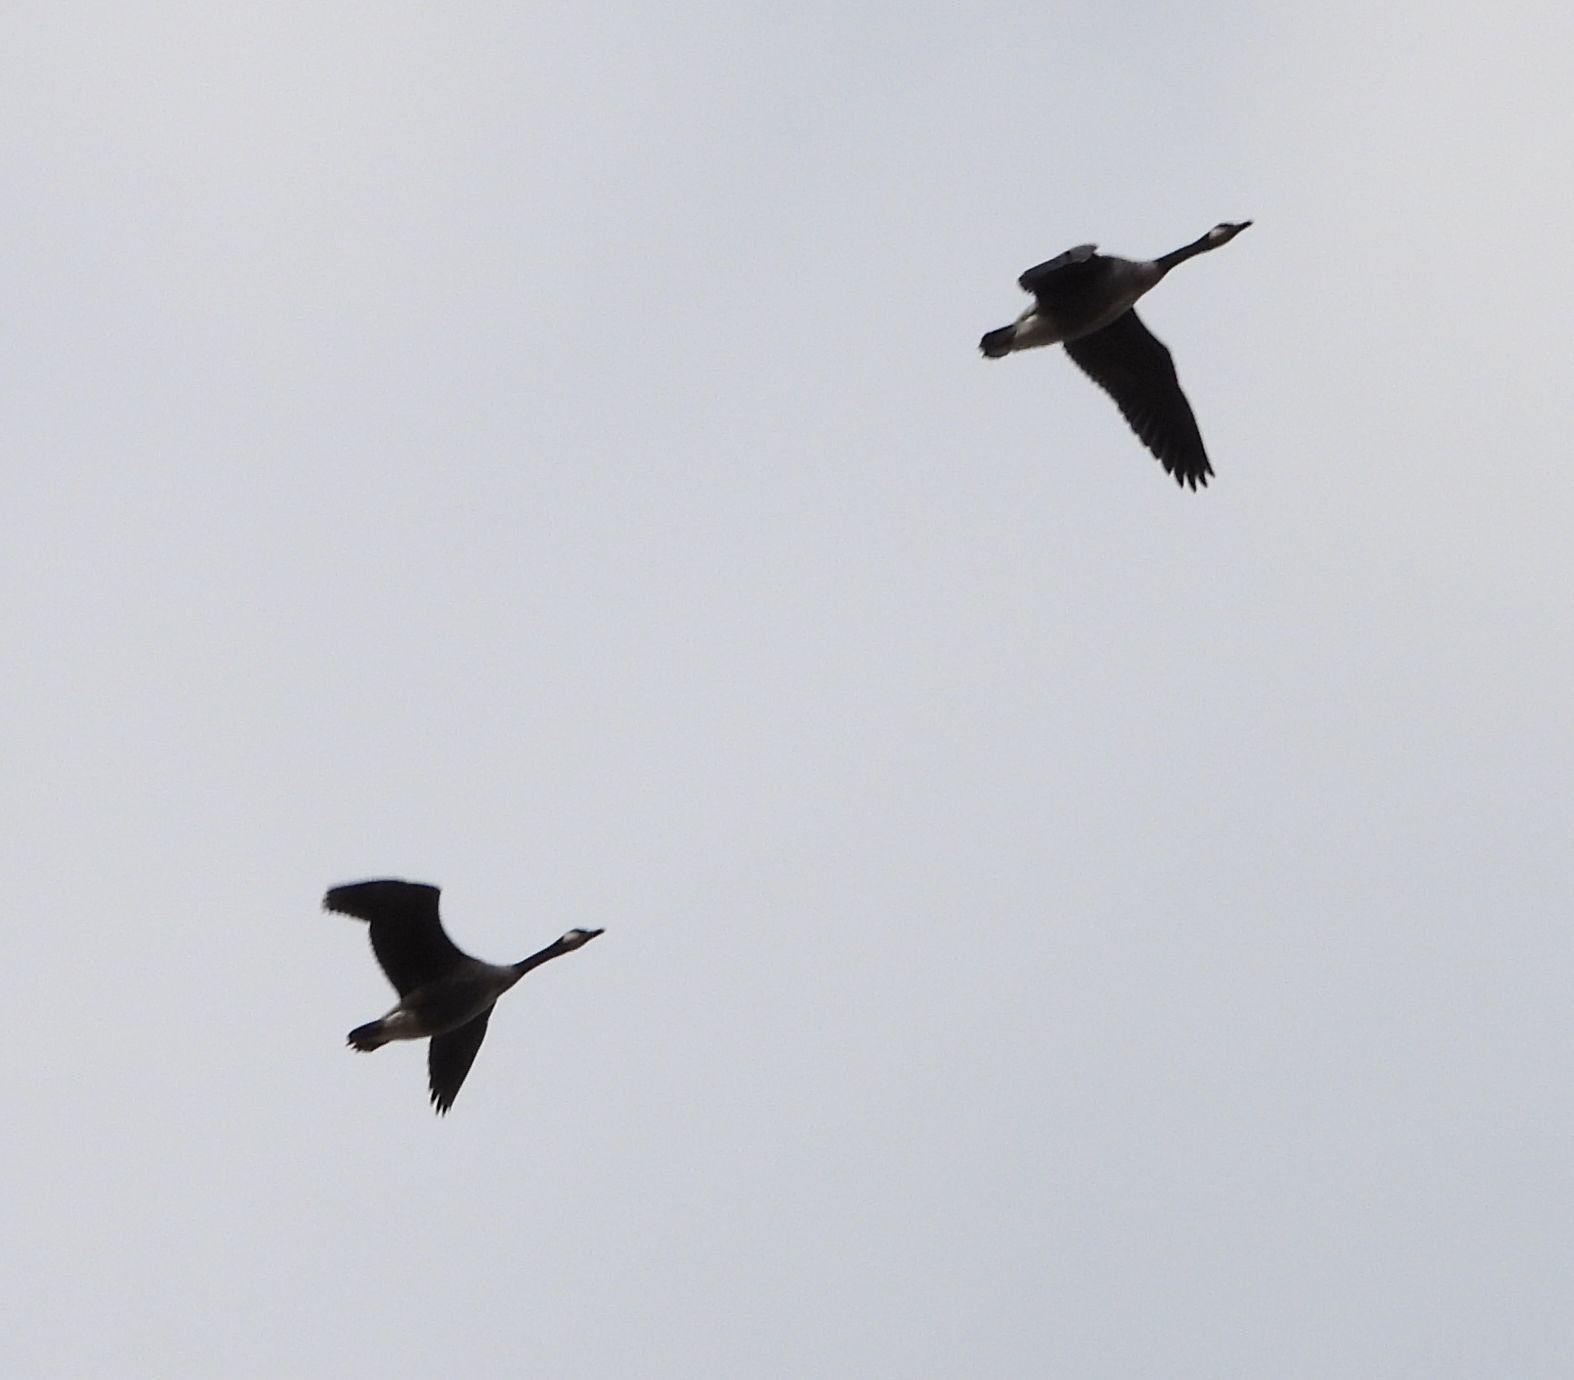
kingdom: Animalia
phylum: Chordata
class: Aves
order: Anseriformes
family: Anatidae
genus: Branta
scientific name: Branta canadensis
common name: Canada goose
